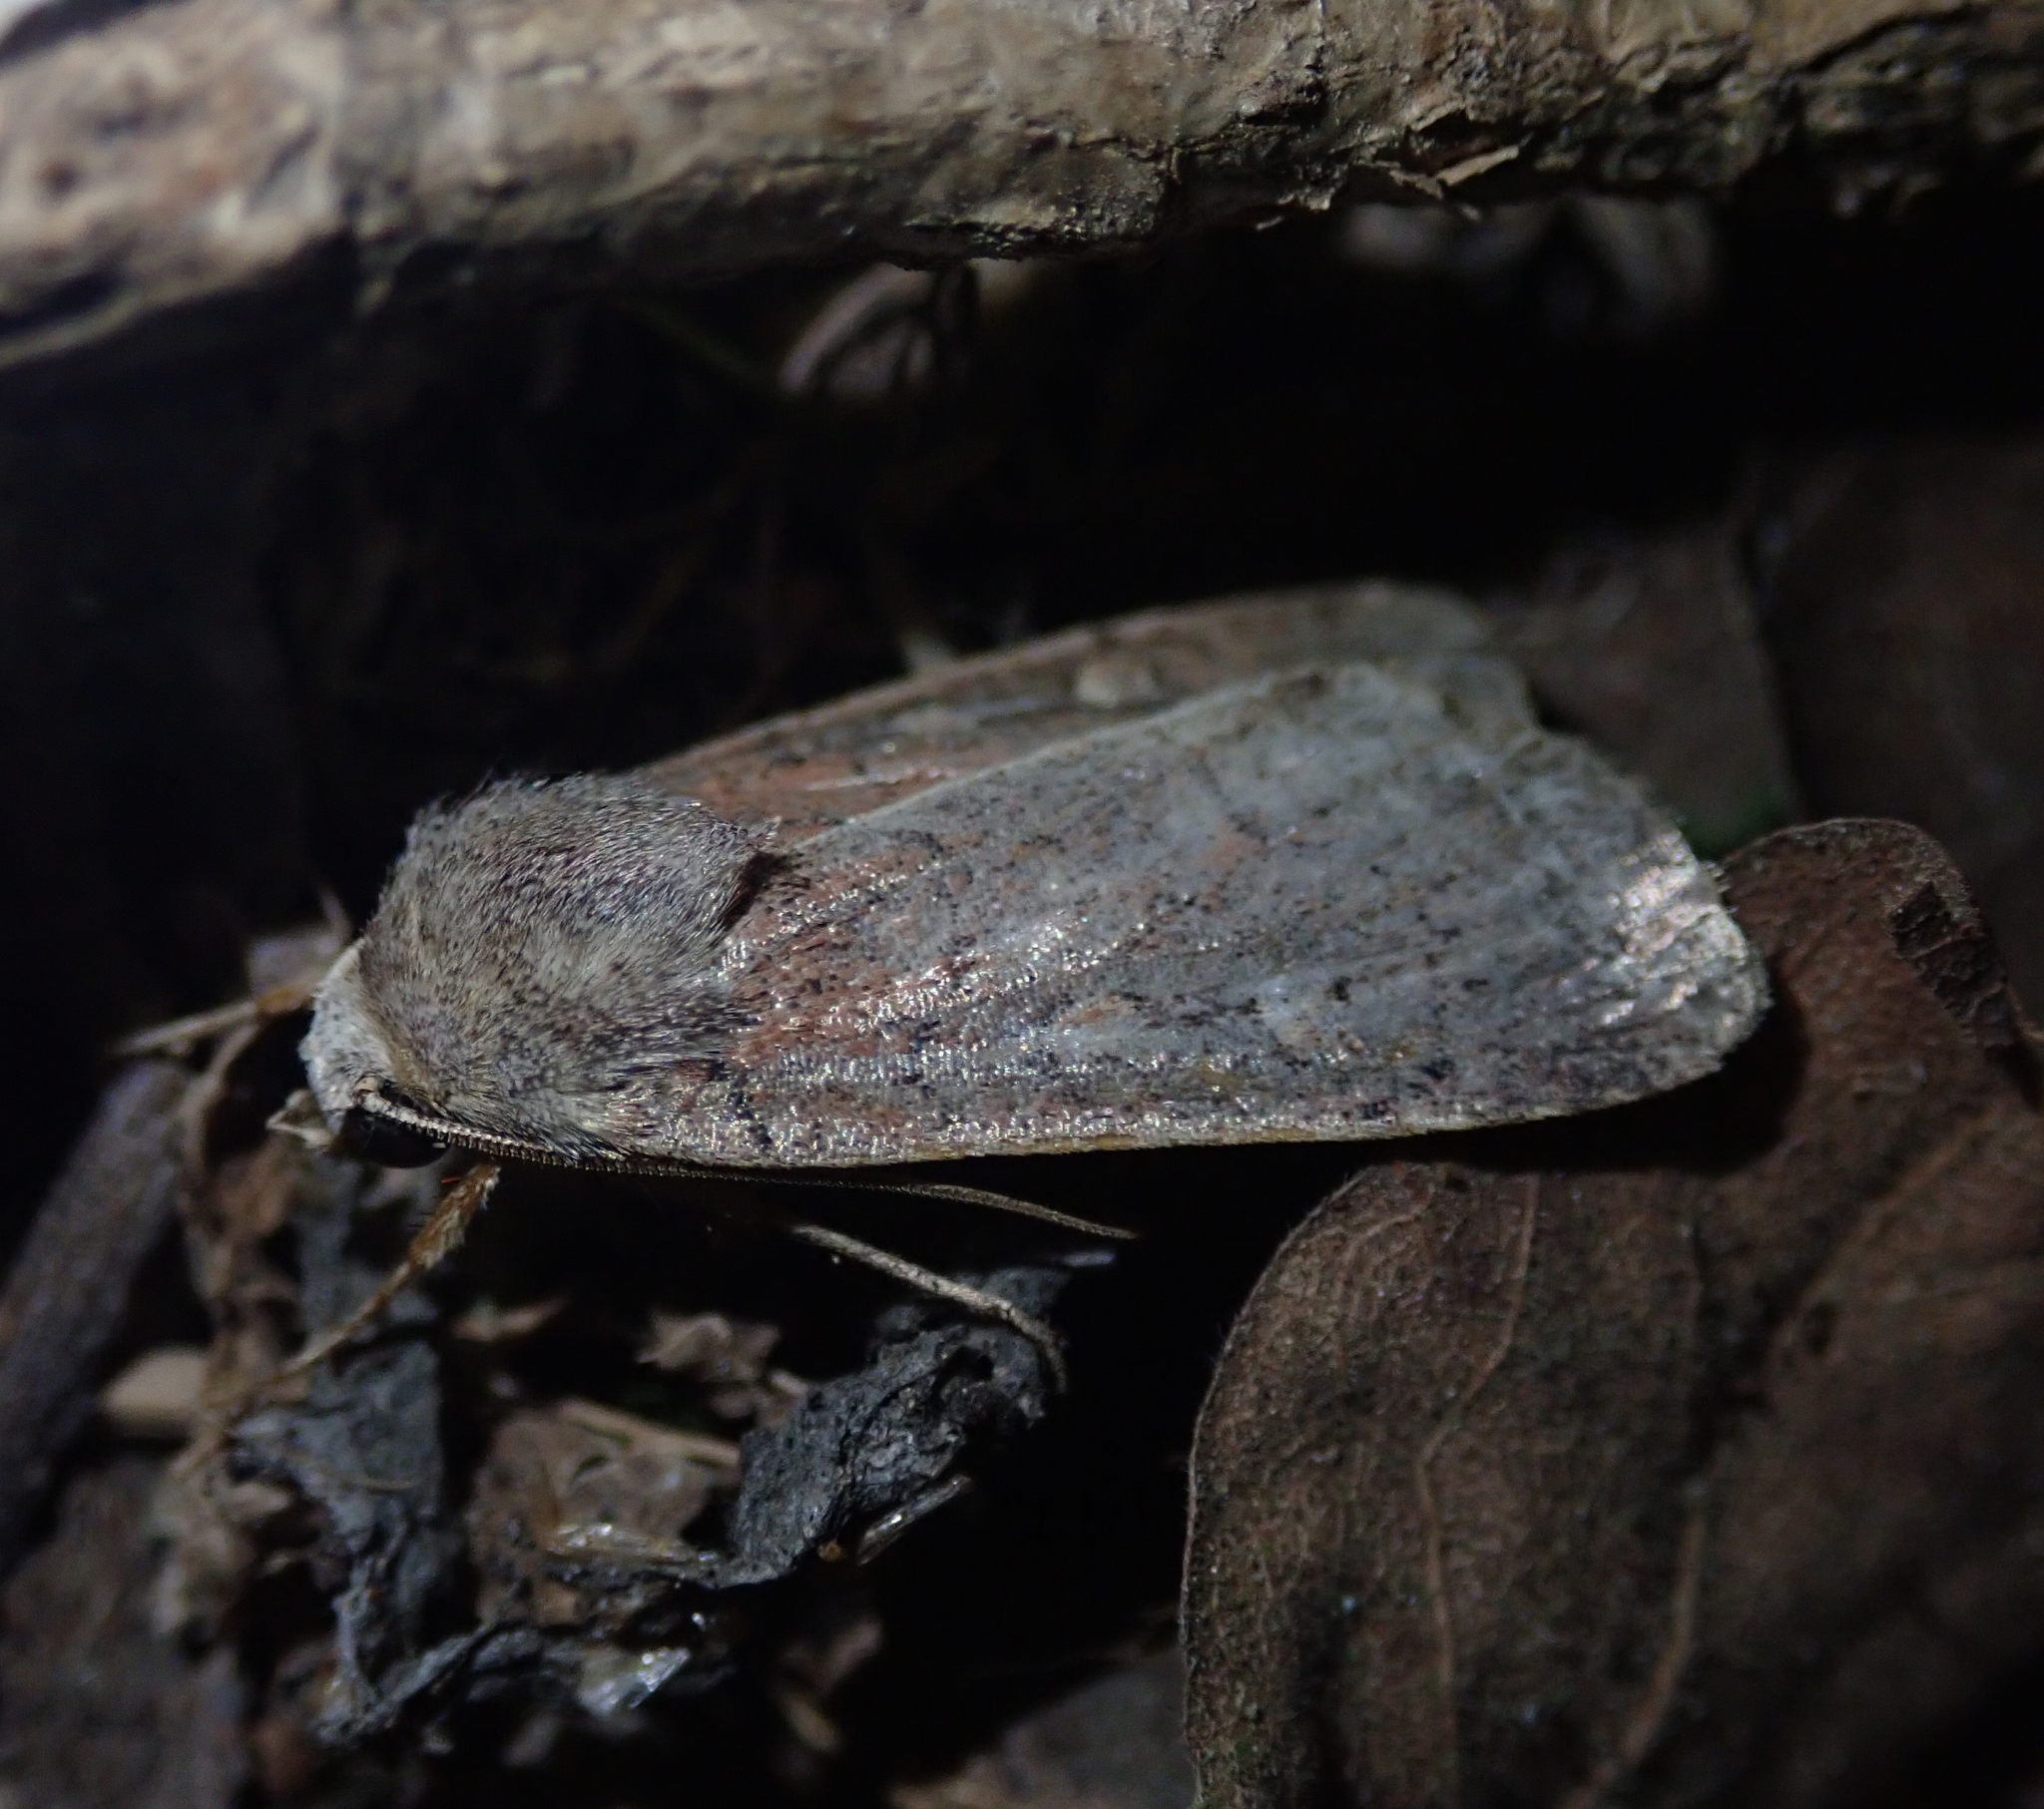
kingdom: Animalia
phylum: Arthropoda
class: Insecta
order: Lepidoptera
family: Noctuidae
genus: Xestia
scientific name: Xestia xanthographa
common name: Square-spot rustic
